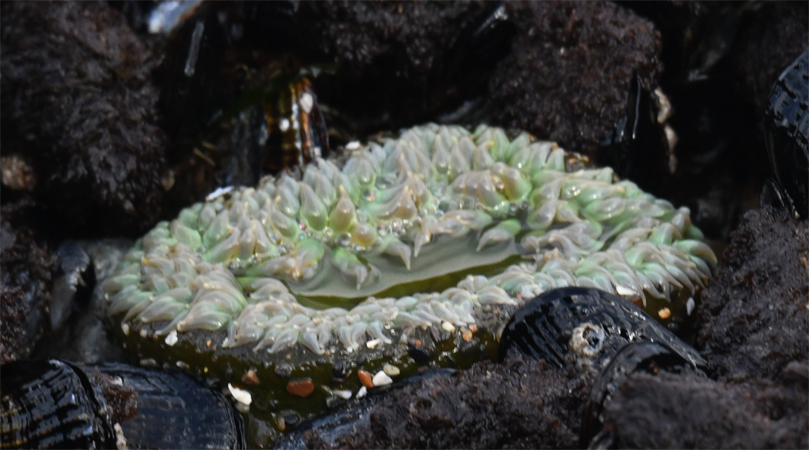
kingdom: Animalia
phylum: Cnidaria
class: Anthozoa
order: Actiniaria
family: Actiniidae
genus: Anthopleura
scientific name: Anthopleura xanthogrammica
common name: Giant green anemone
